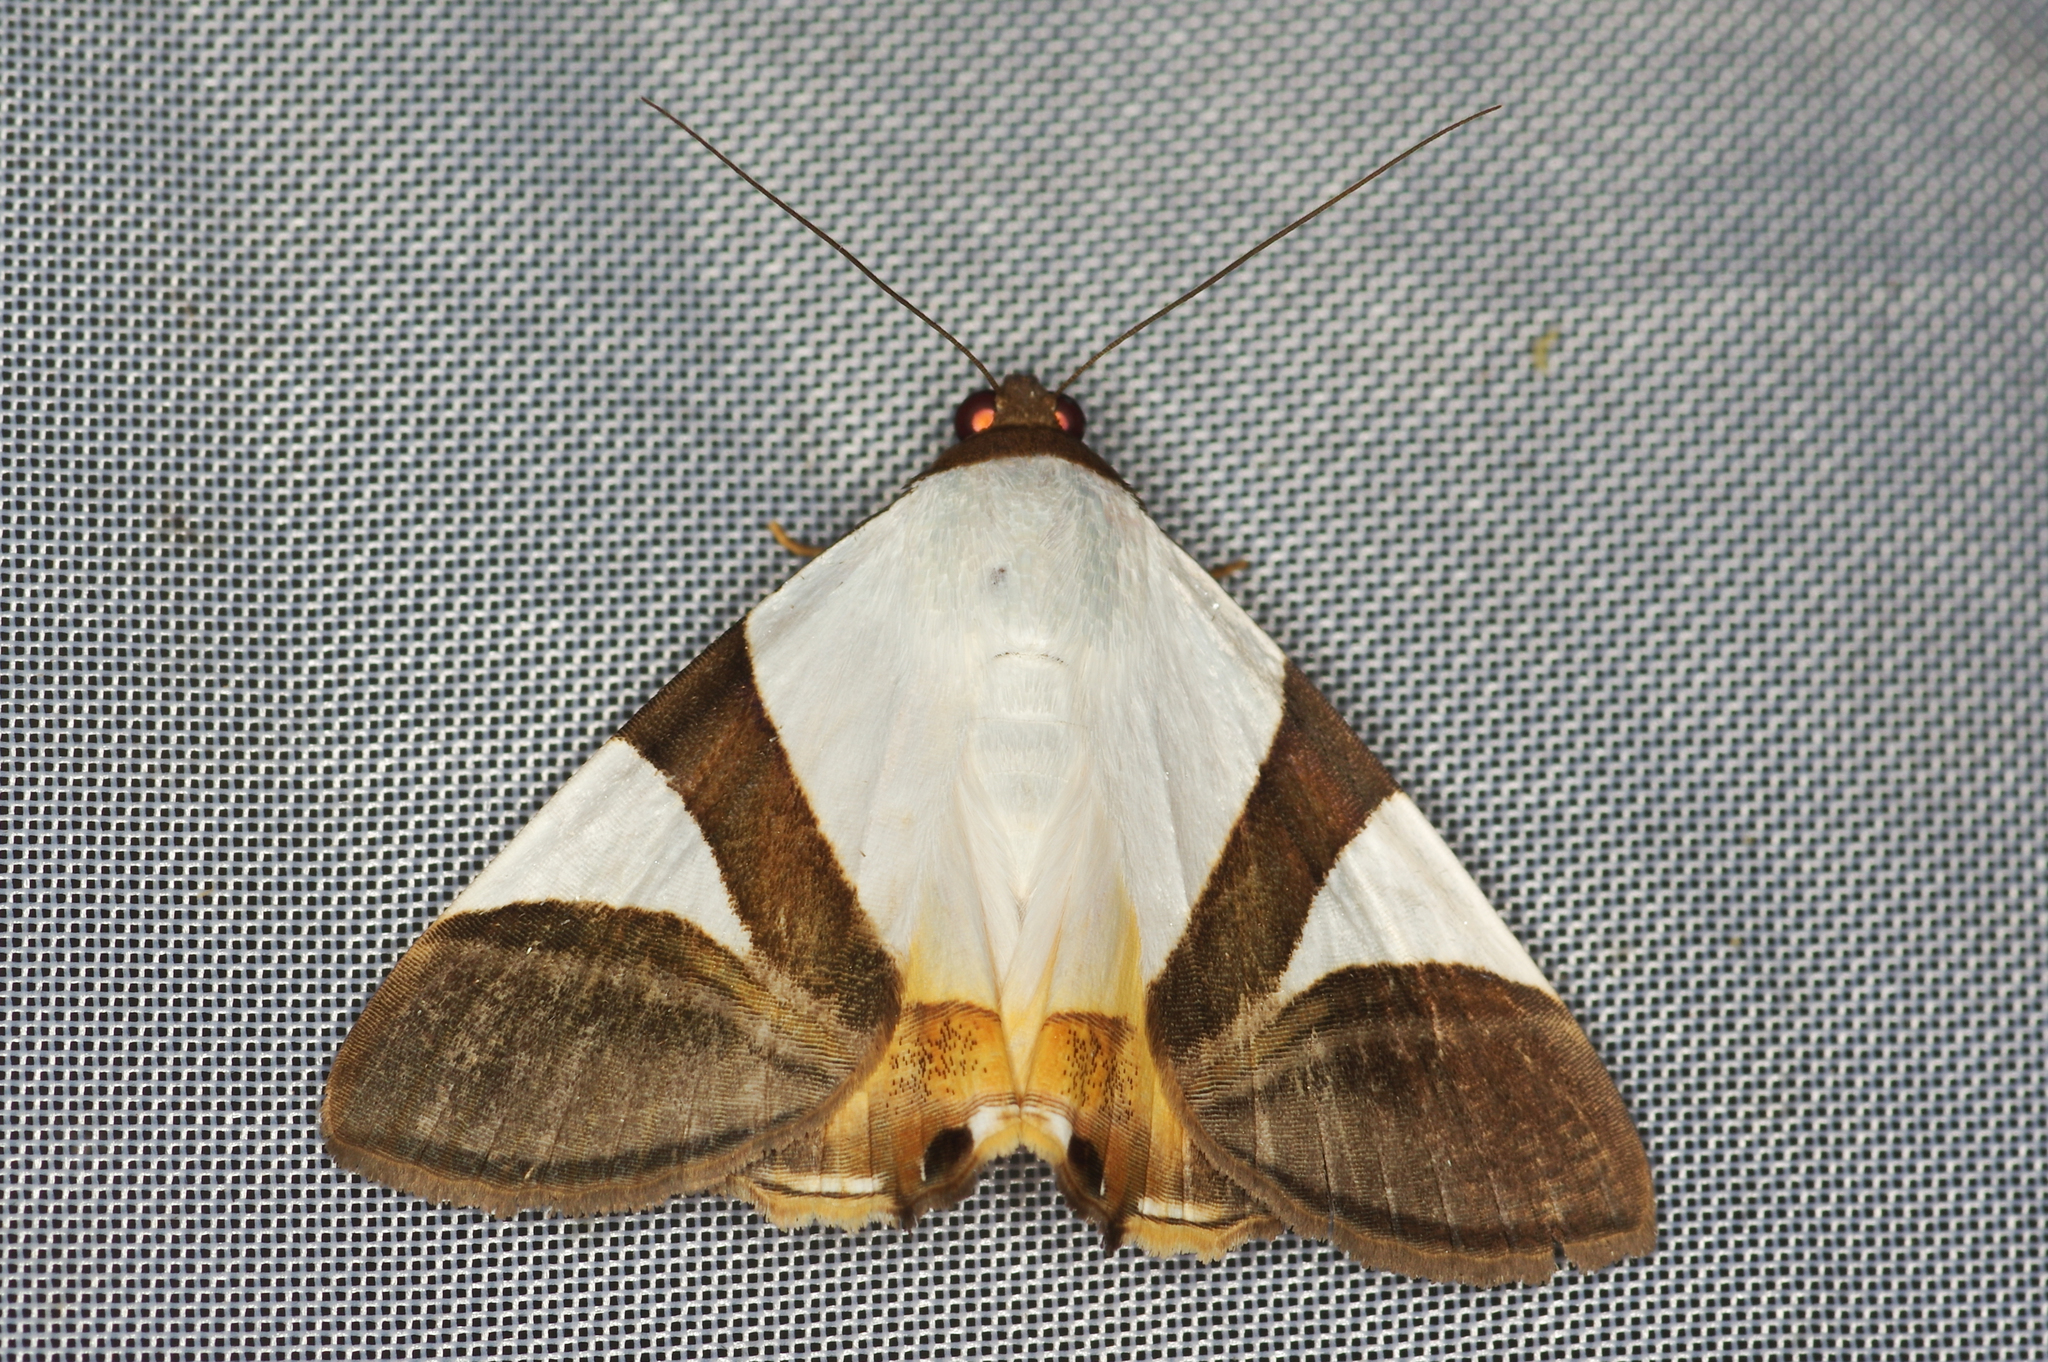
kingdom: Animalia
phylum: Arthropoda
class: Insecta
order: Lepidoptera
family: Erebidae
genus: Eulepidotis
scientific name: Eulepidotis dominicata
